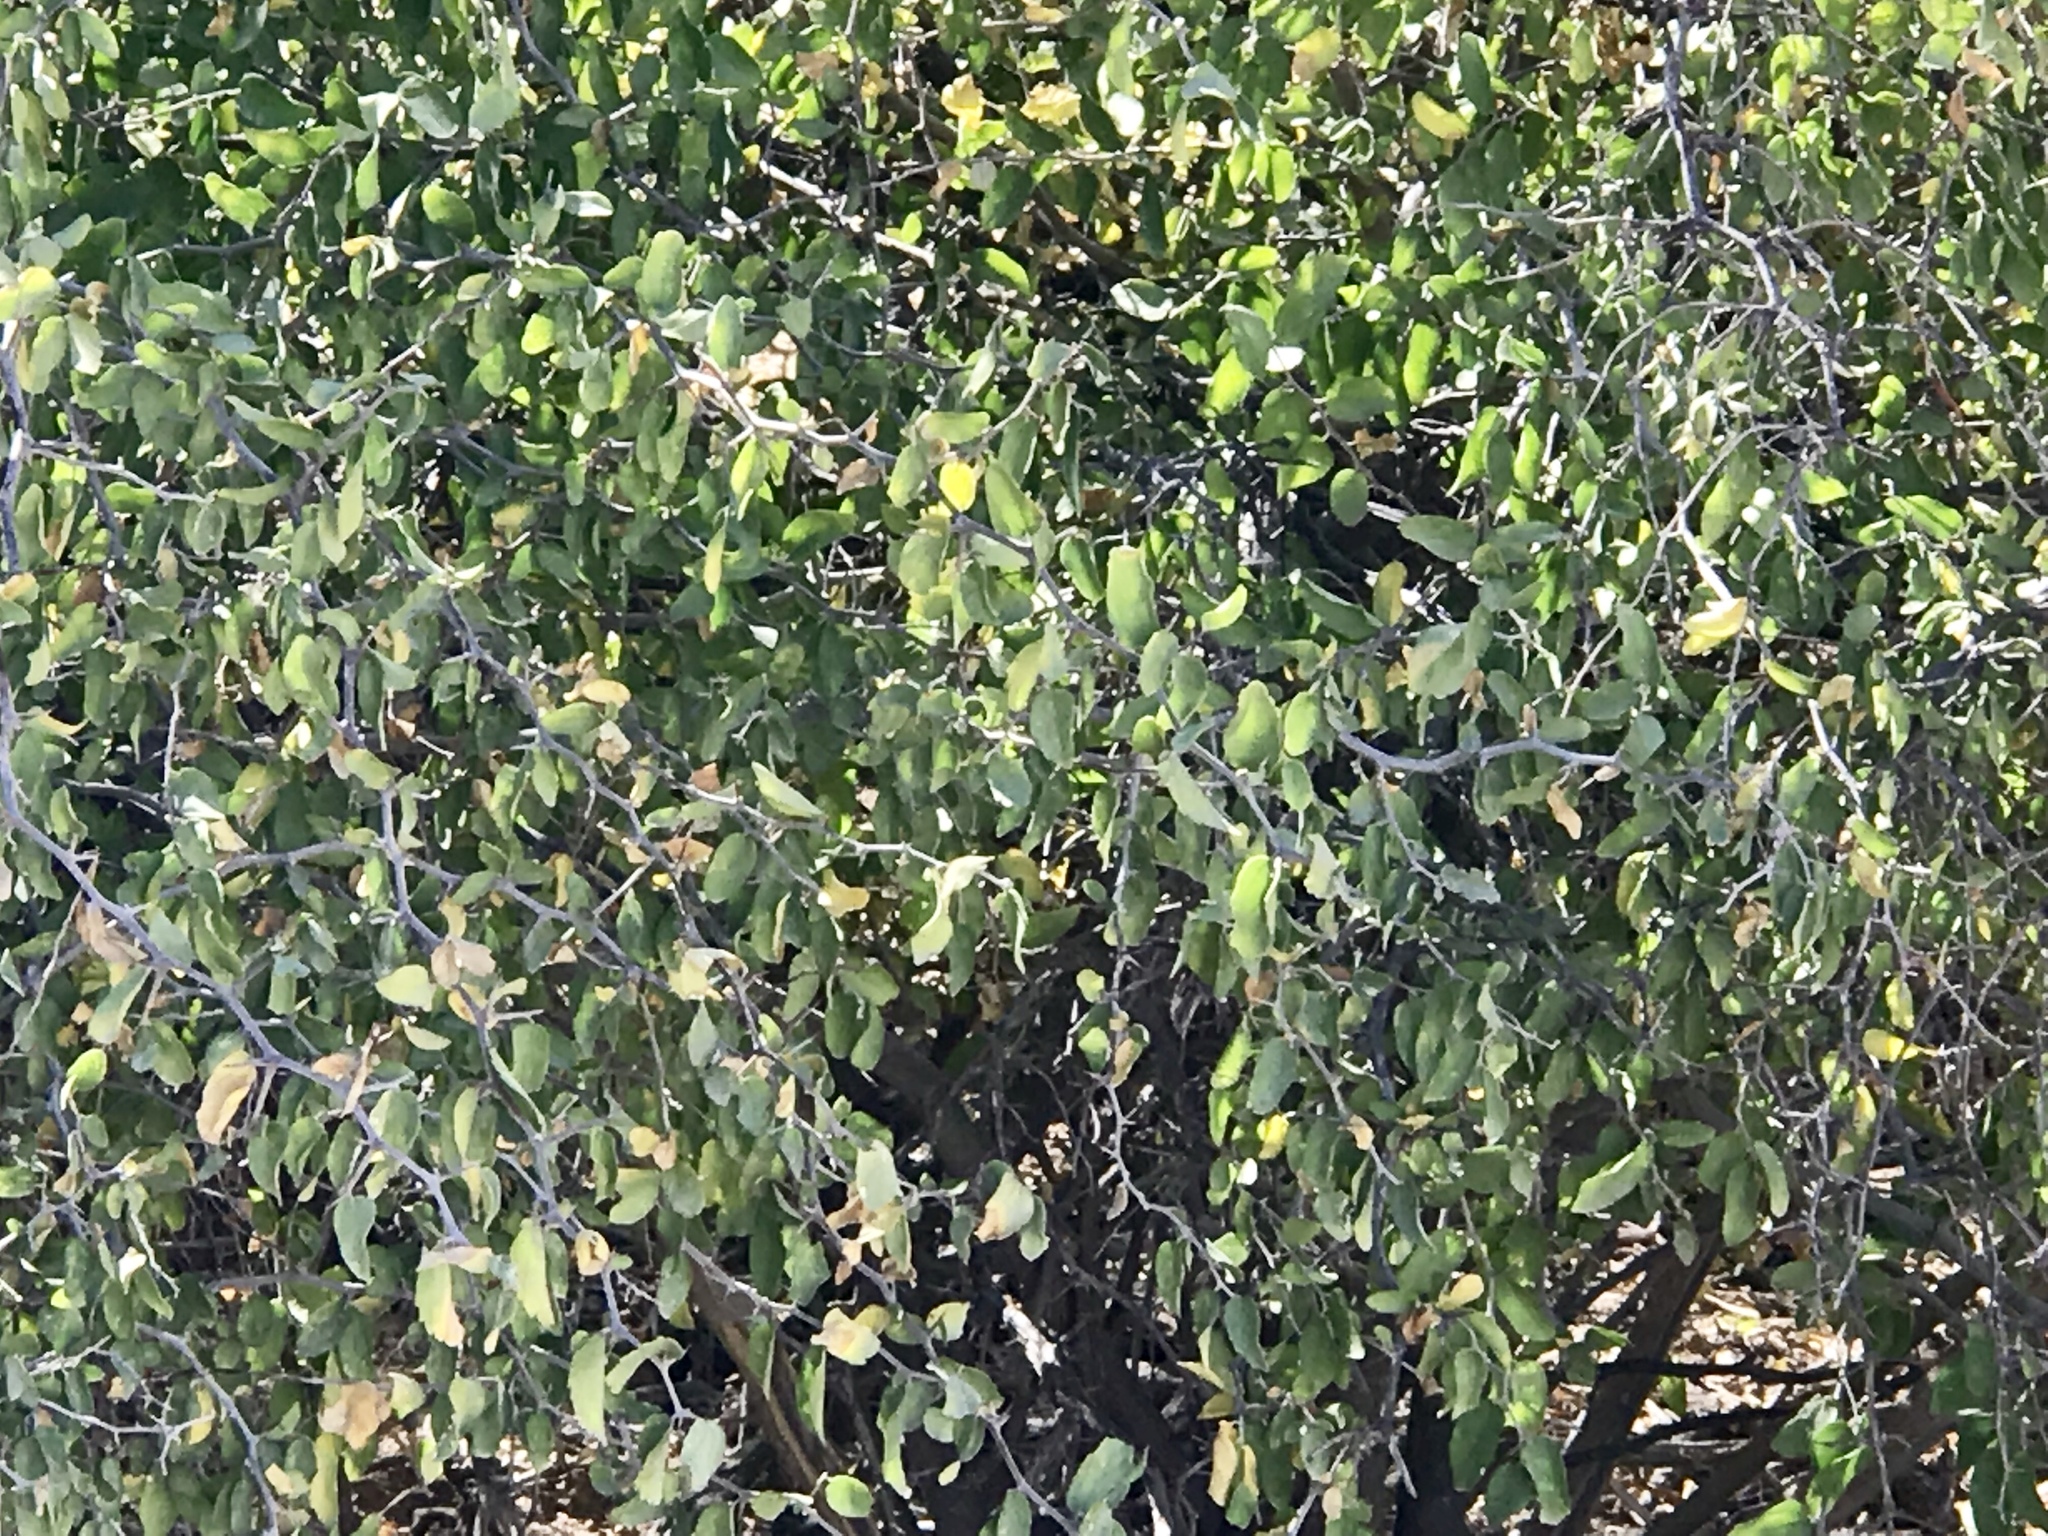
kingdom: Plantae
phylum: Tracheophyta
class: Magnoliopsida
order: Rosales
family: Cannabaceae
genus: Celtis
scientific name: Celtis pallida
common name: Desert hackberry
